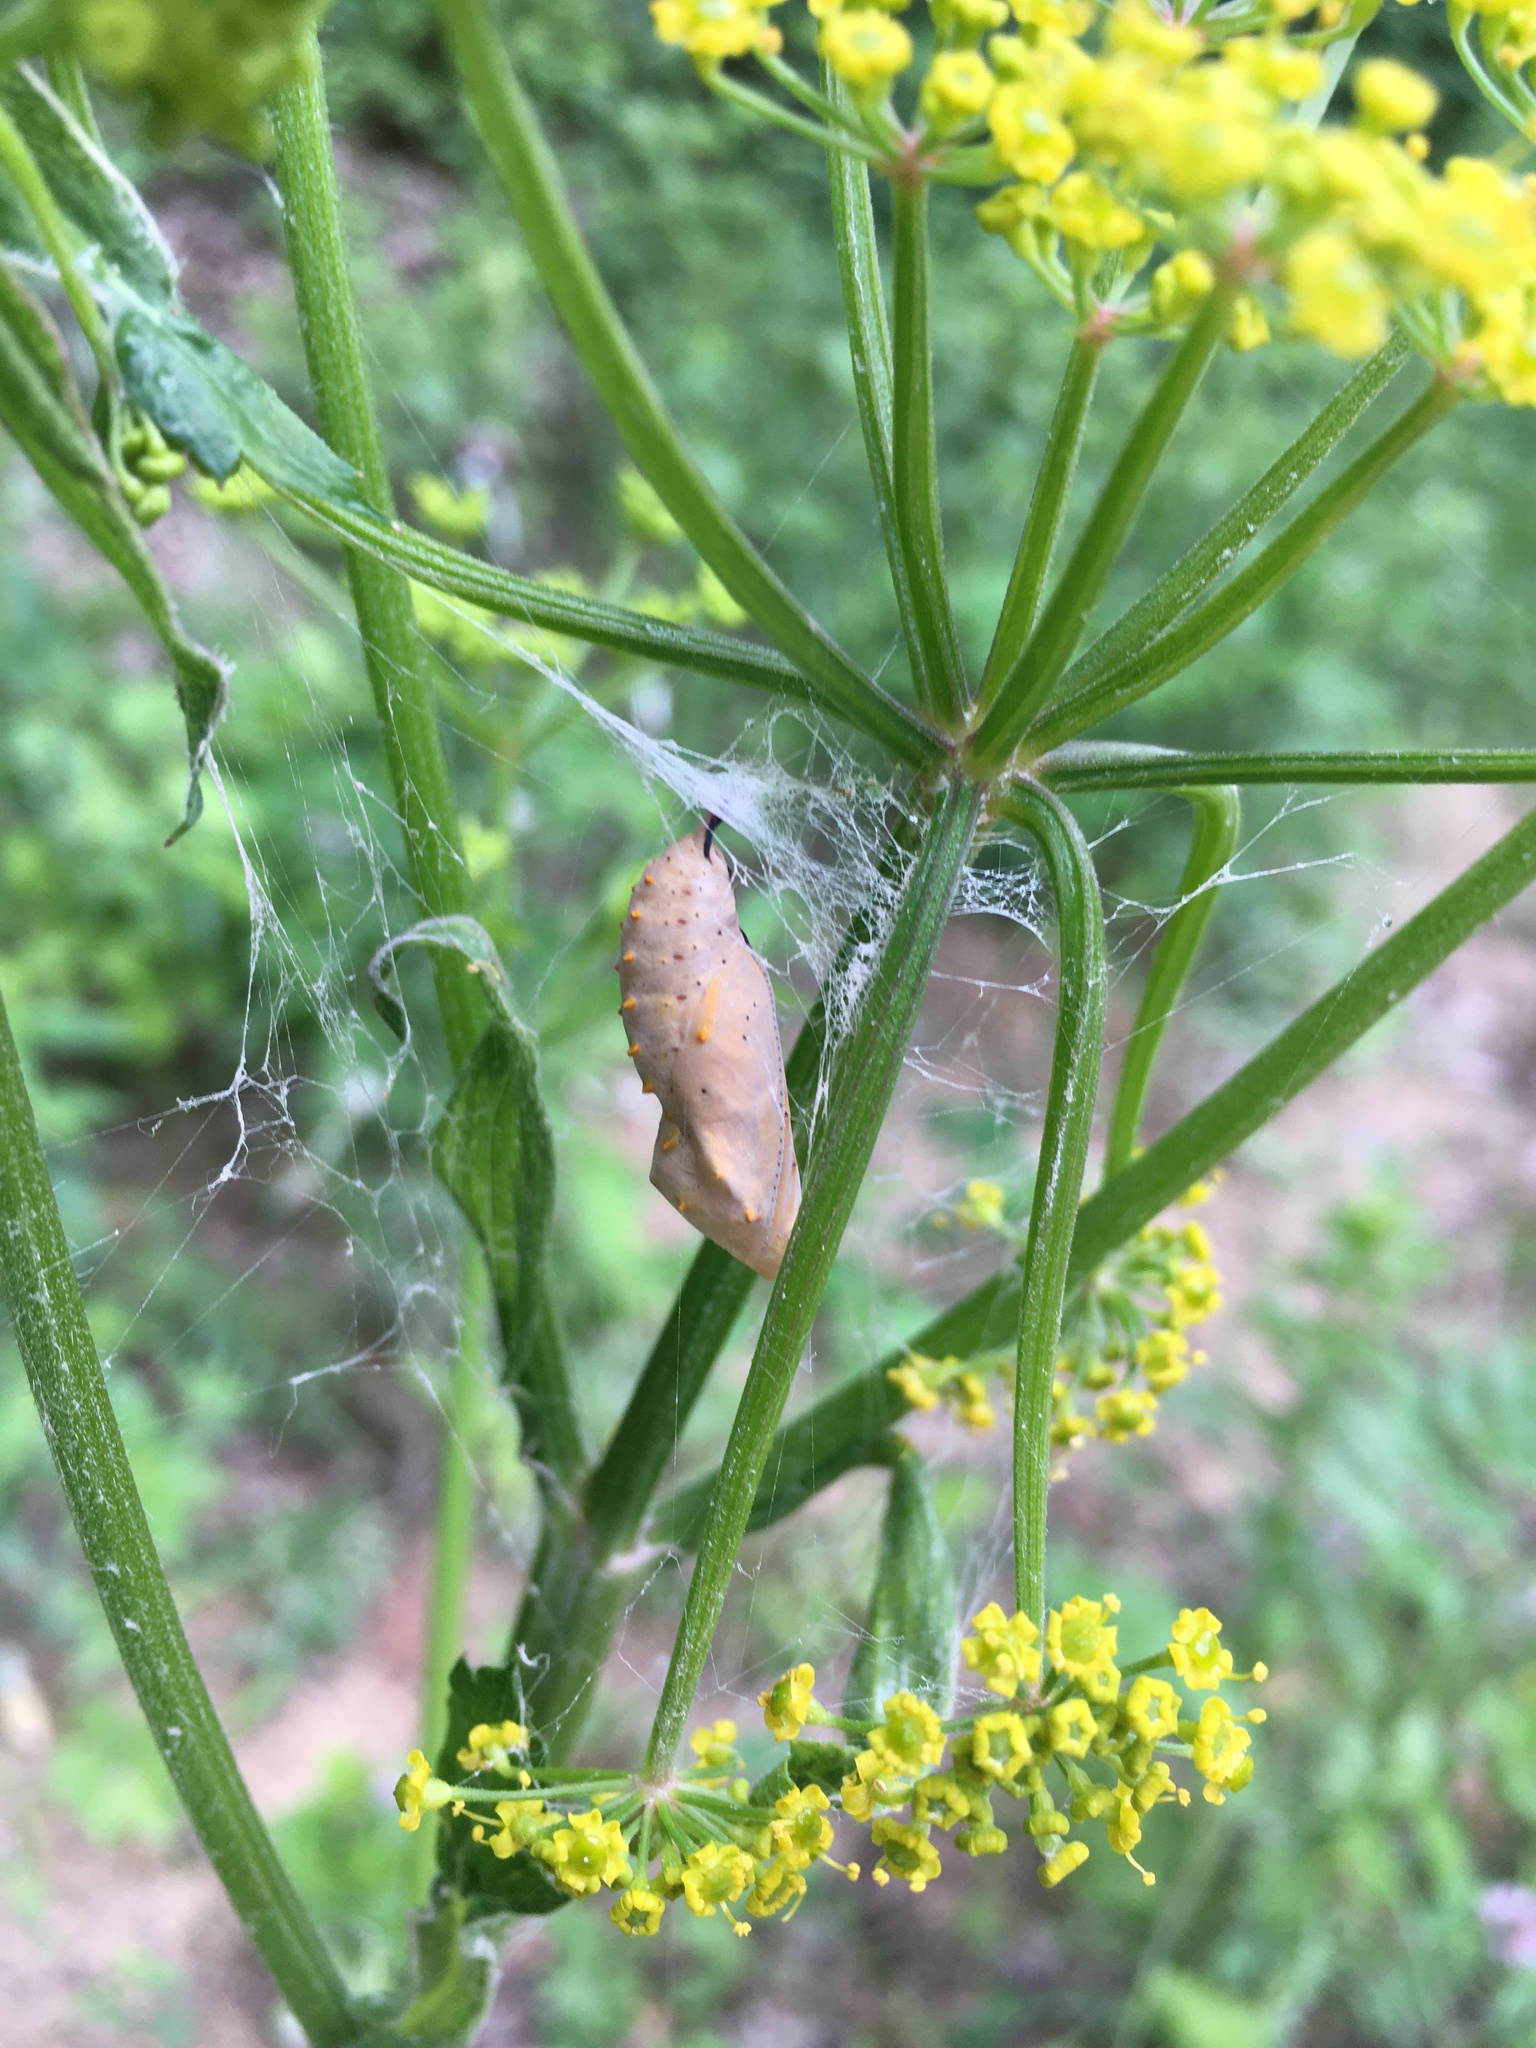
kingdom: Animalia
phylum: Arthropoda
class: Insecta
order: Lepidoptera
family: Nymphalidae
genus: Vanessa
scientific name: Vanessa cardui
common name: Painted lady
